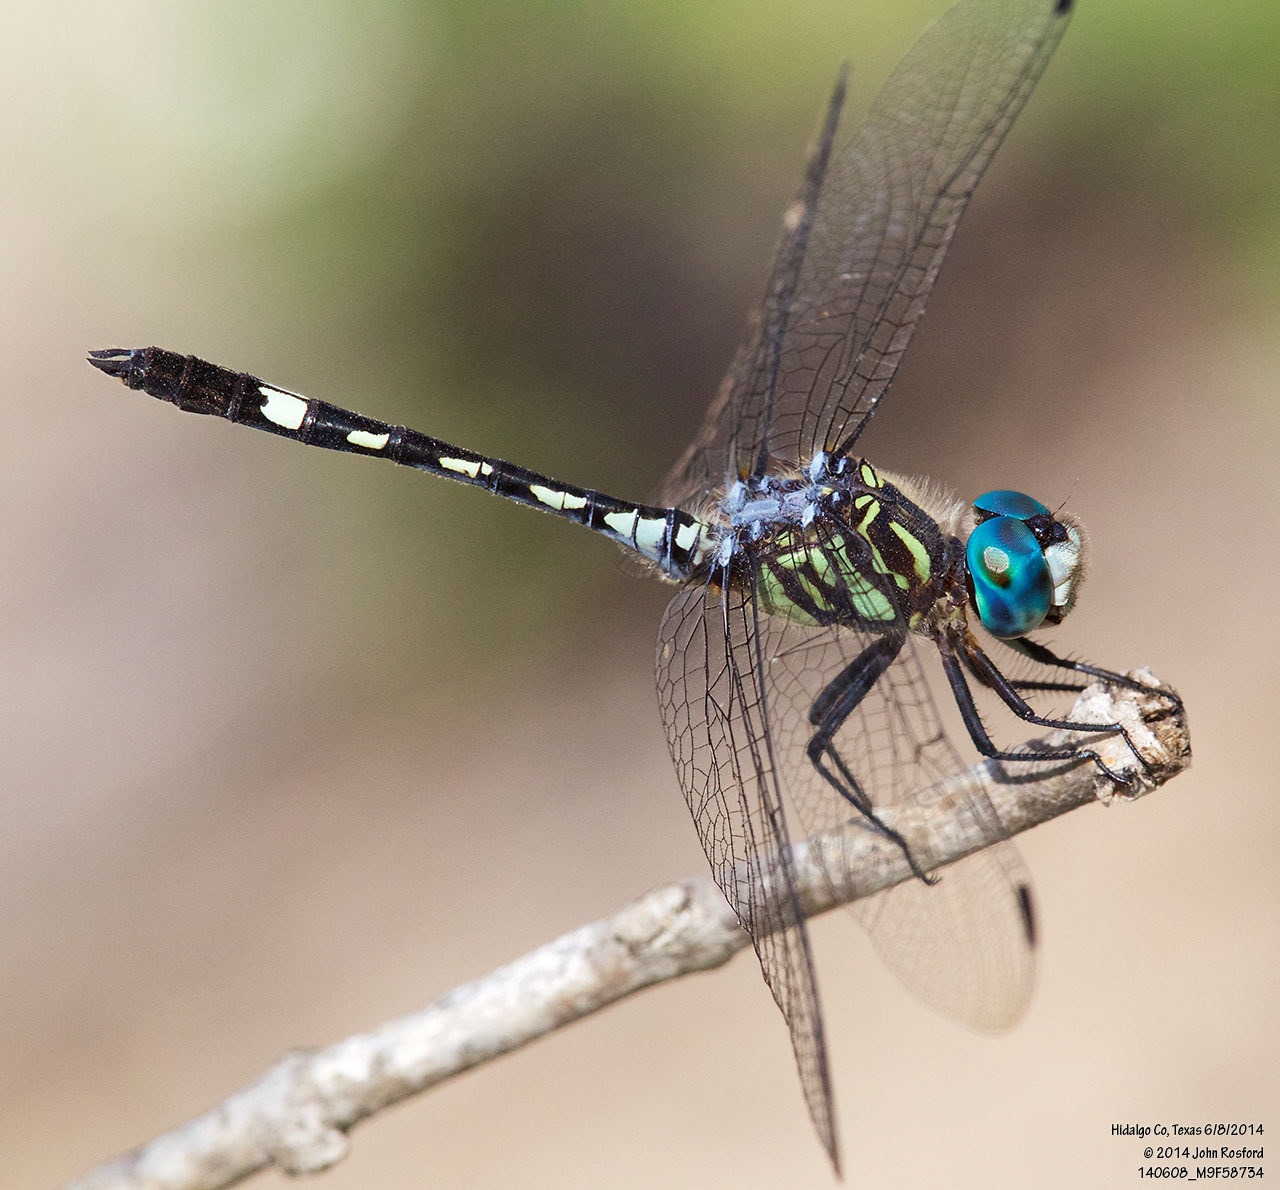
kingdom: Animalia
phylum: Arthropoda
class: Insecta
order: Odonata
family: Libellulidae
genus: Micrathyria
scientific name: Micrathyria hagenii
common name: Thornbush dasher
